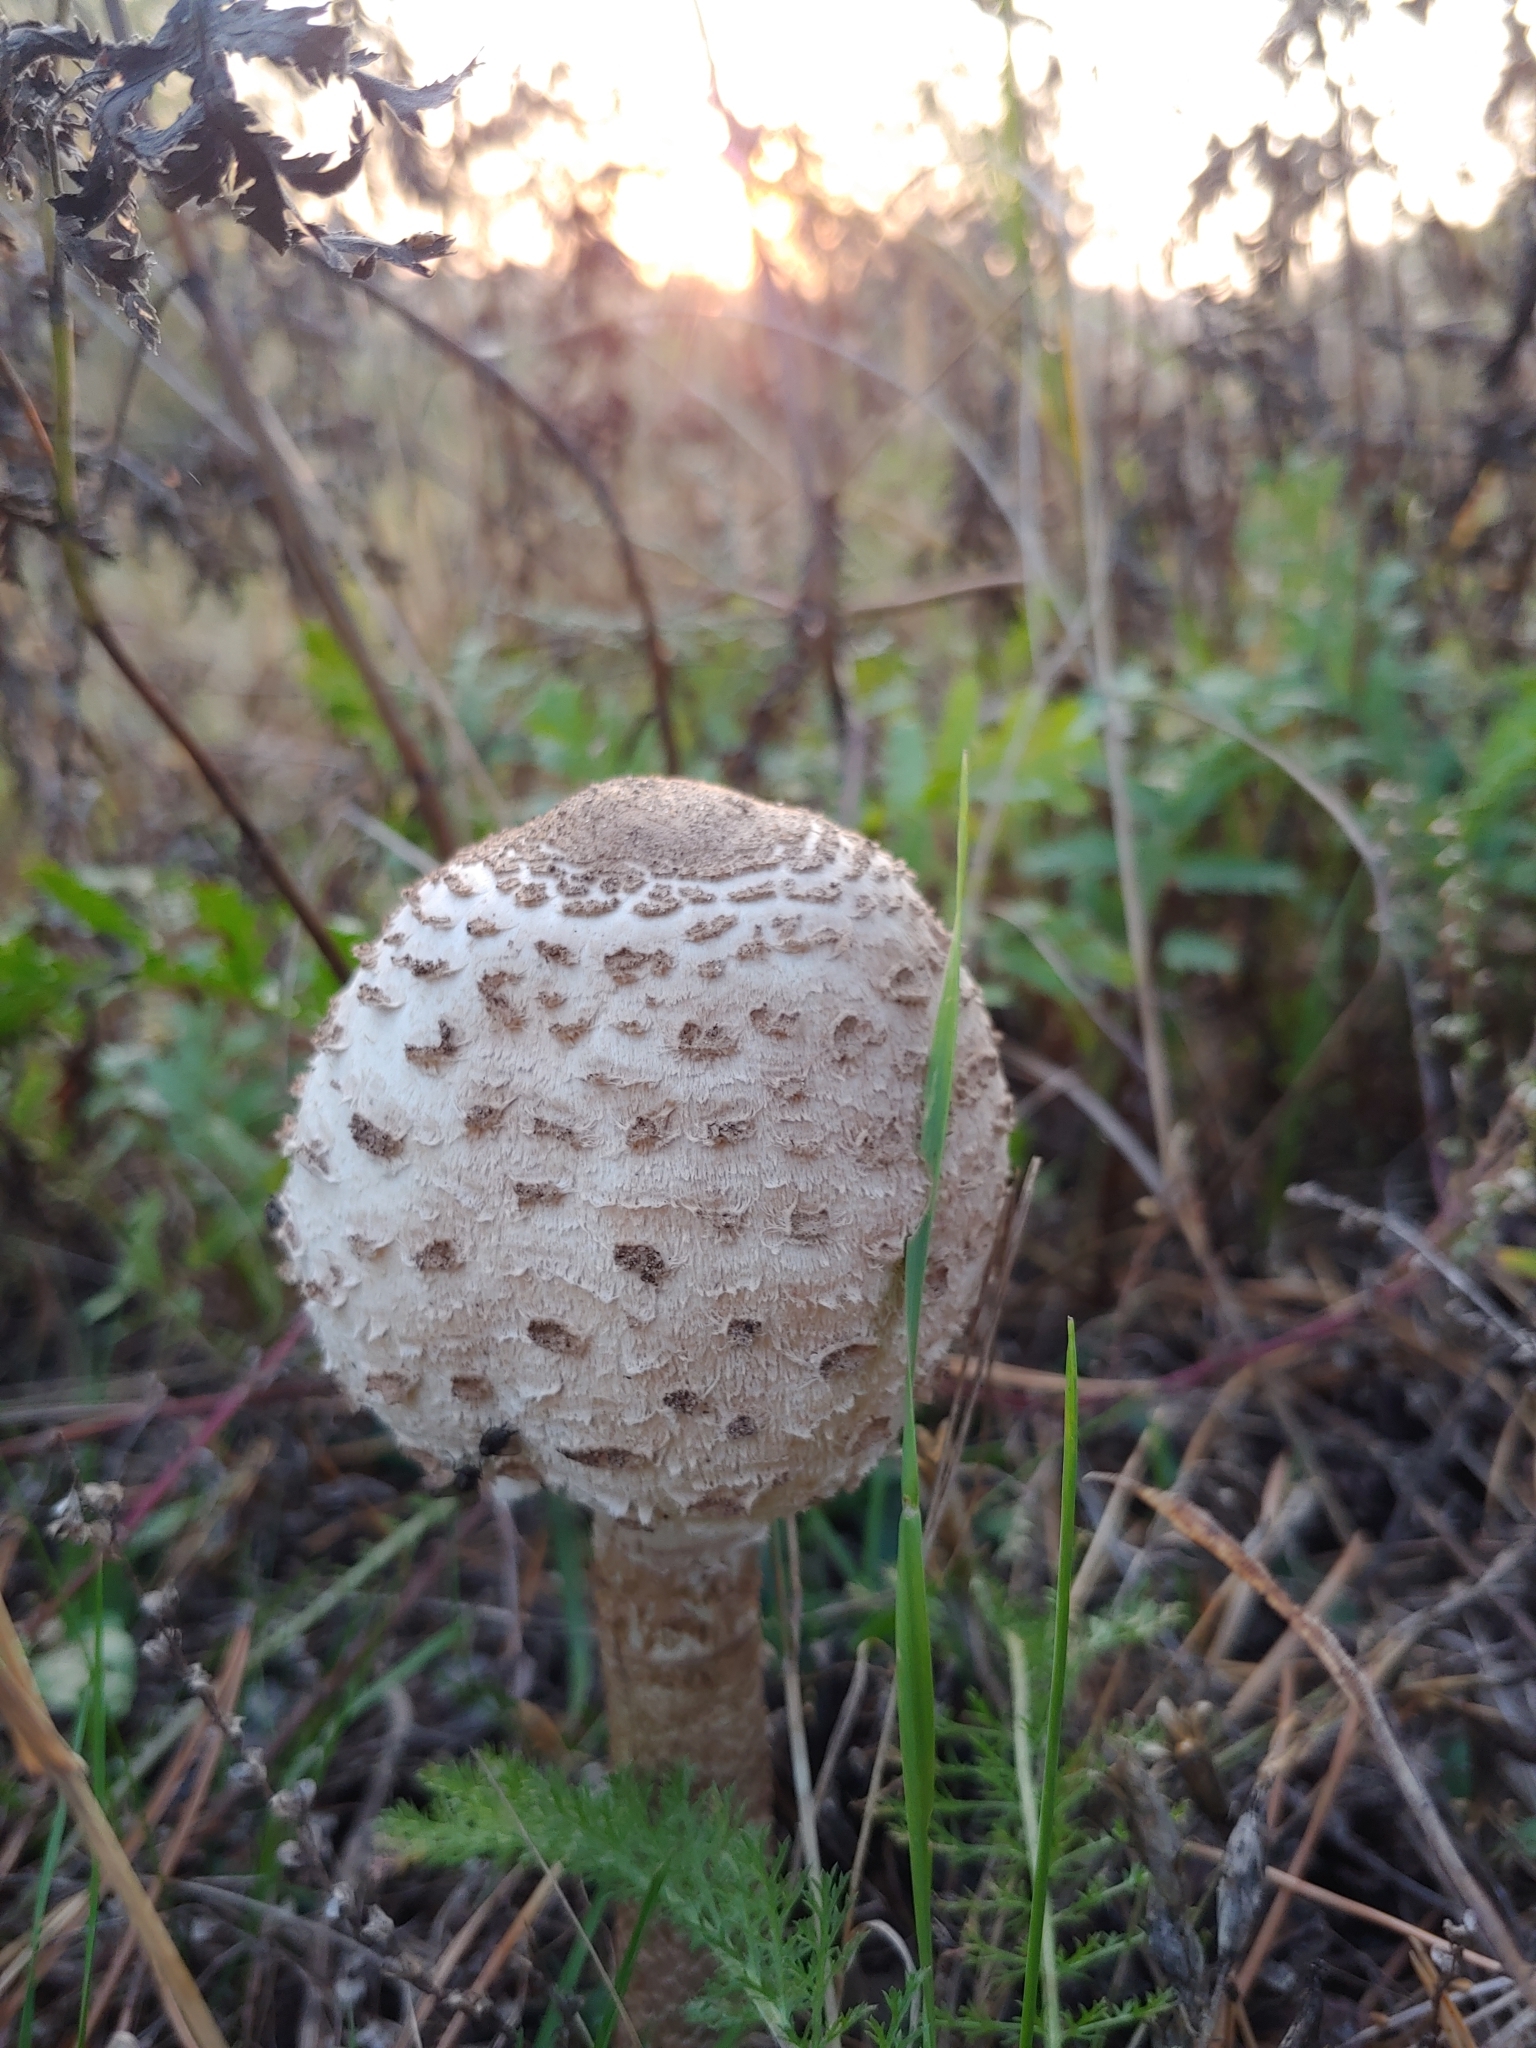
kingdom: Fungi
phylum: Basidiomycota
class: Agaricomycetes
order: Agaricales
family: Agaricaceae
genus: Macrolepiota
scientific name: Macrolepiota procera
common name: Parasol
